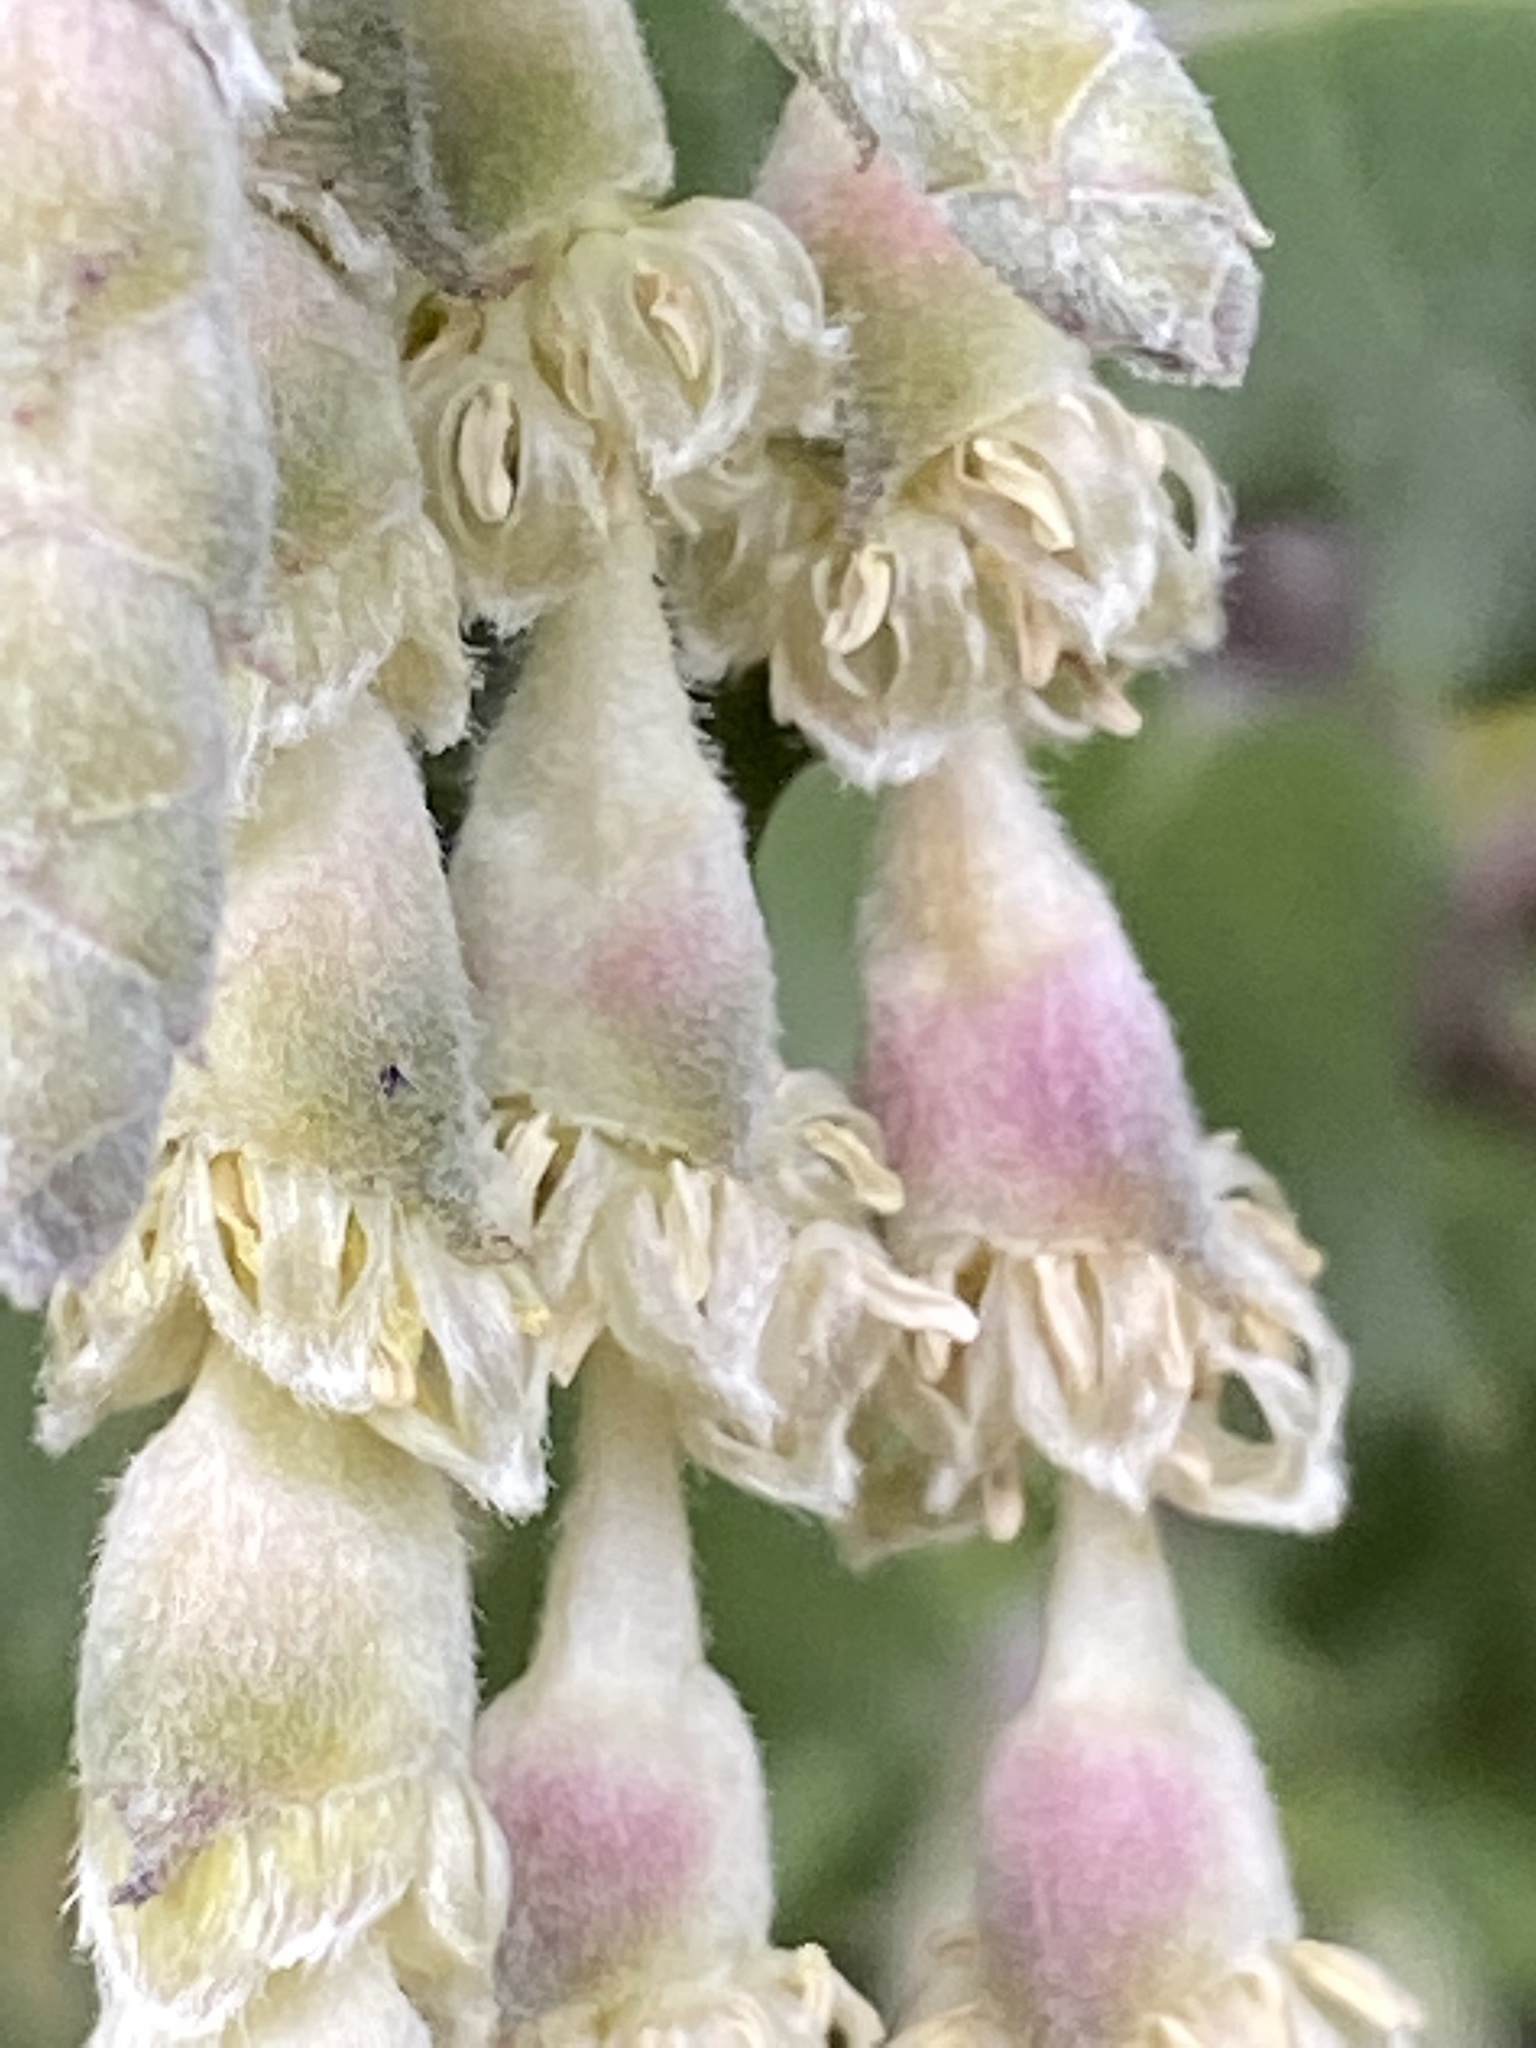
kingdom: Plantae
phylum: Tracheophyta
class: Magnoliopsida
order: Garryales
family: Garryaceae
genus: Garrya
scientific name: Garrya elliptica
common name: Silk-tassel
